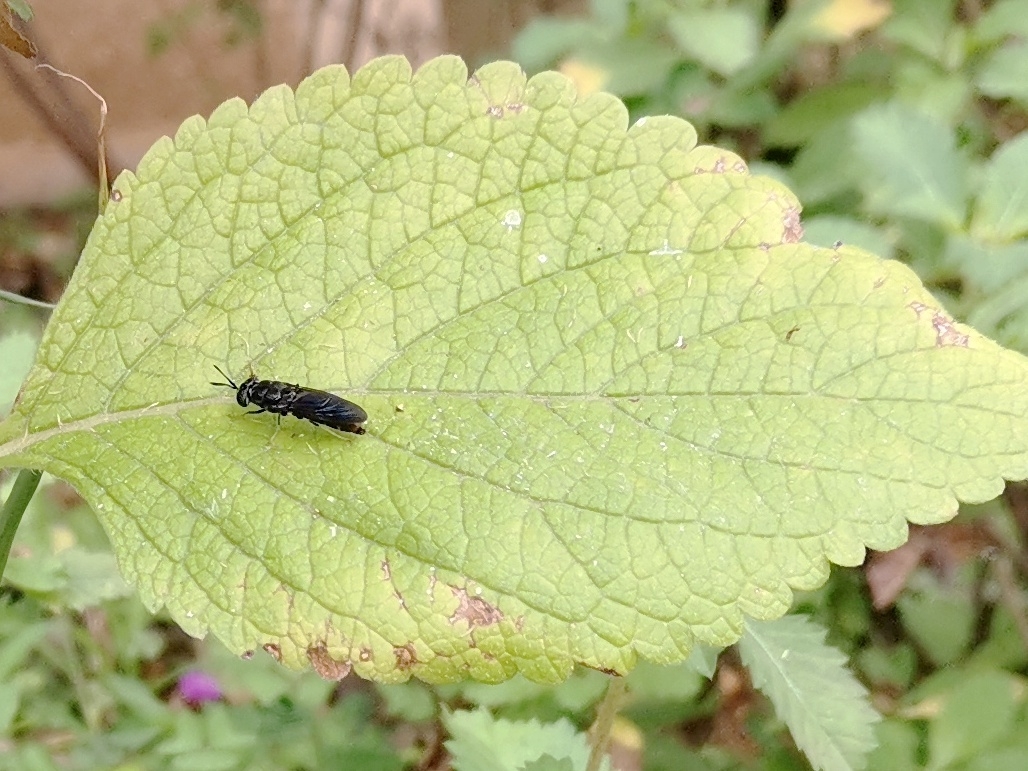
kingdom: Animalia
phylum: Arthropoda
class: Insecta
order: Diptera
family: Stratiomyidae
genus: Hermetia
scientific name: Hermetia illucens
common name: Black soldier fly
